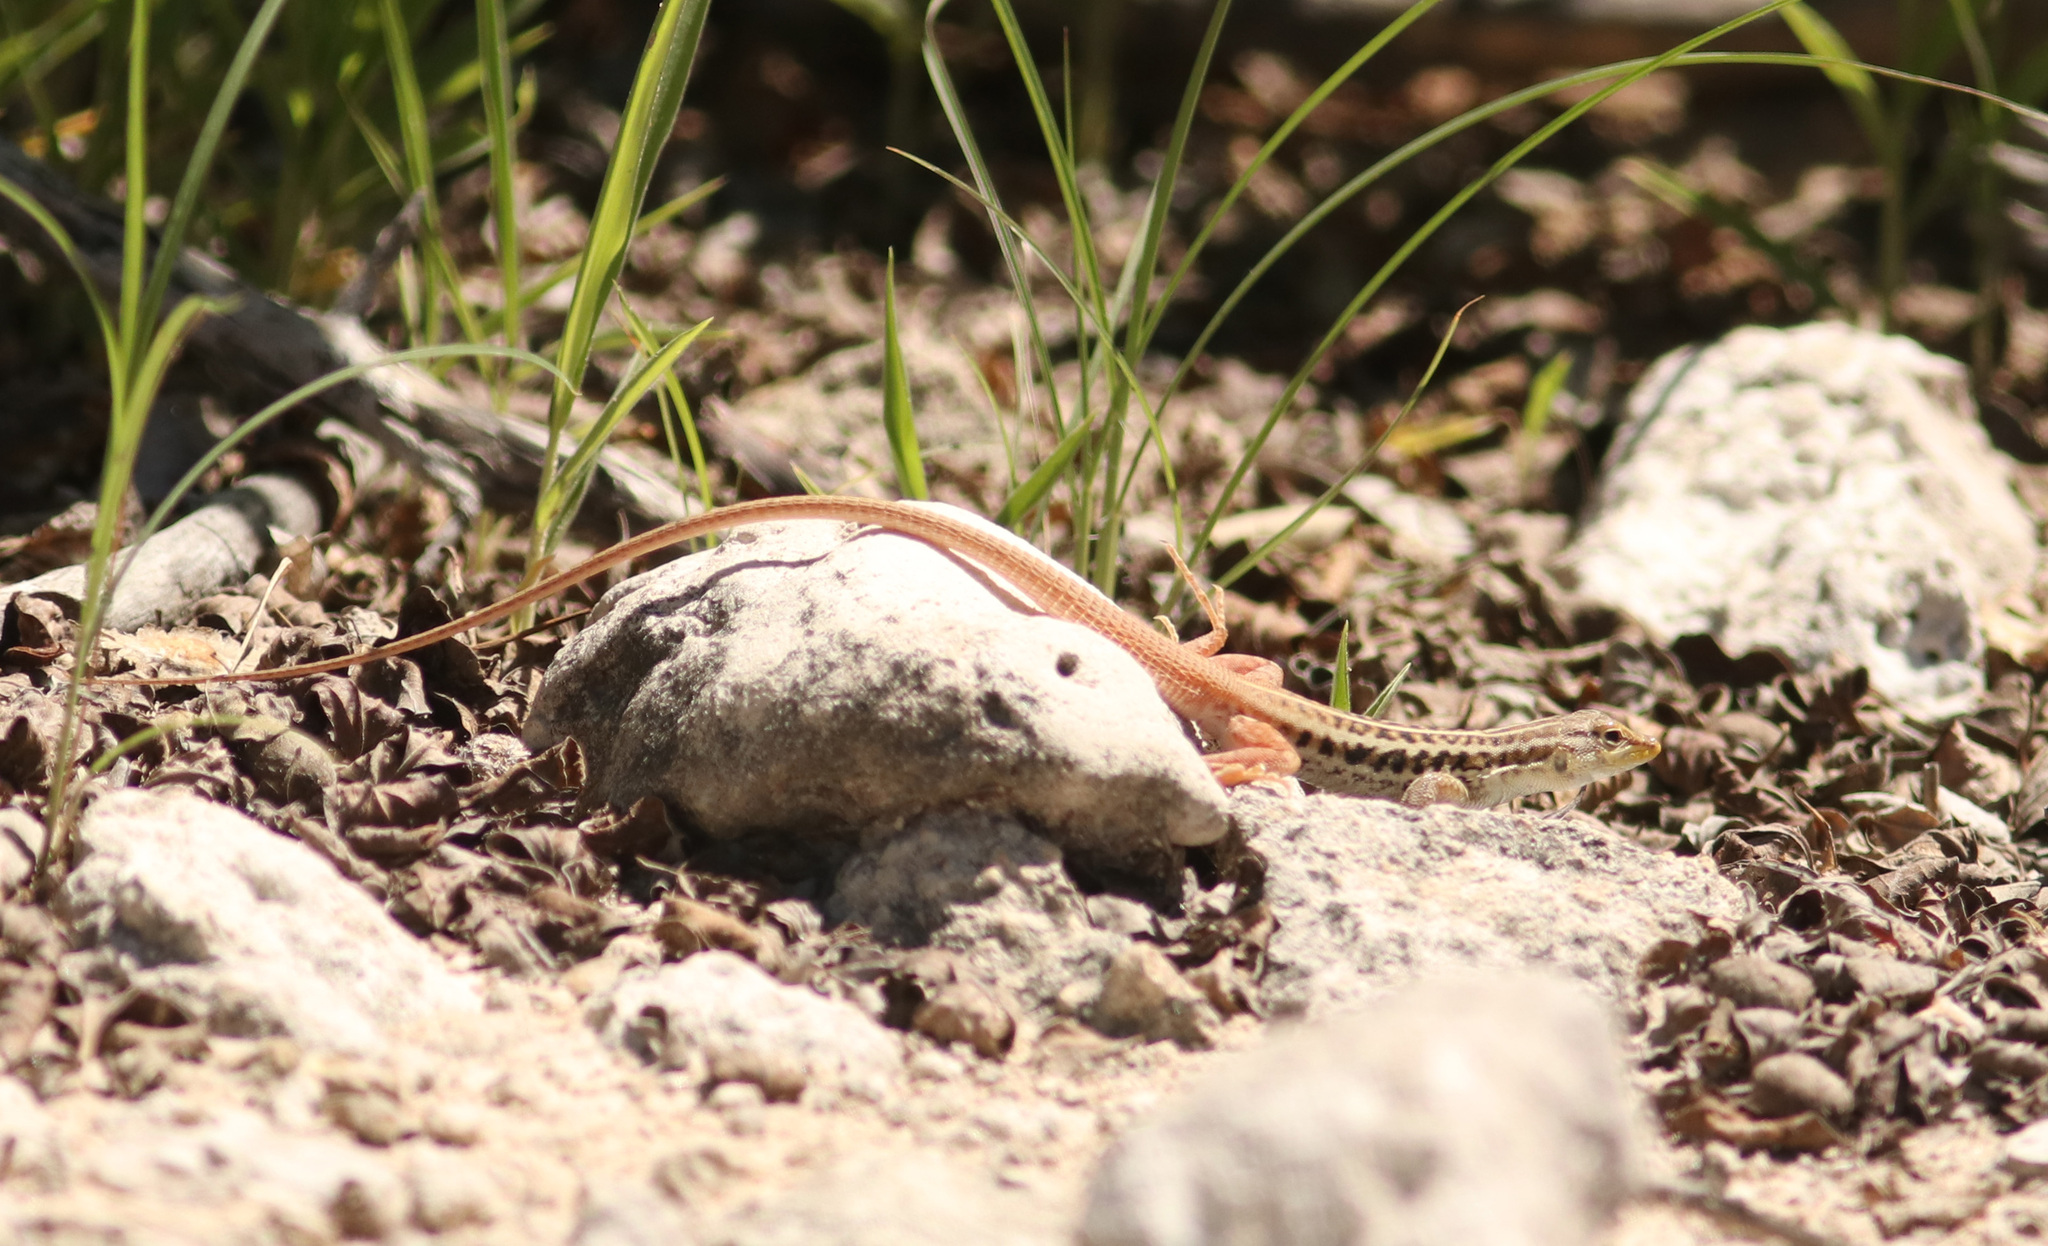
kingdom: Animalia
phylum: Chordata
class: Squamata
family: Lacertidae
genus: Heliobolus
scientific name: Heliobolus lugubris
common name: Bushveld lizard
